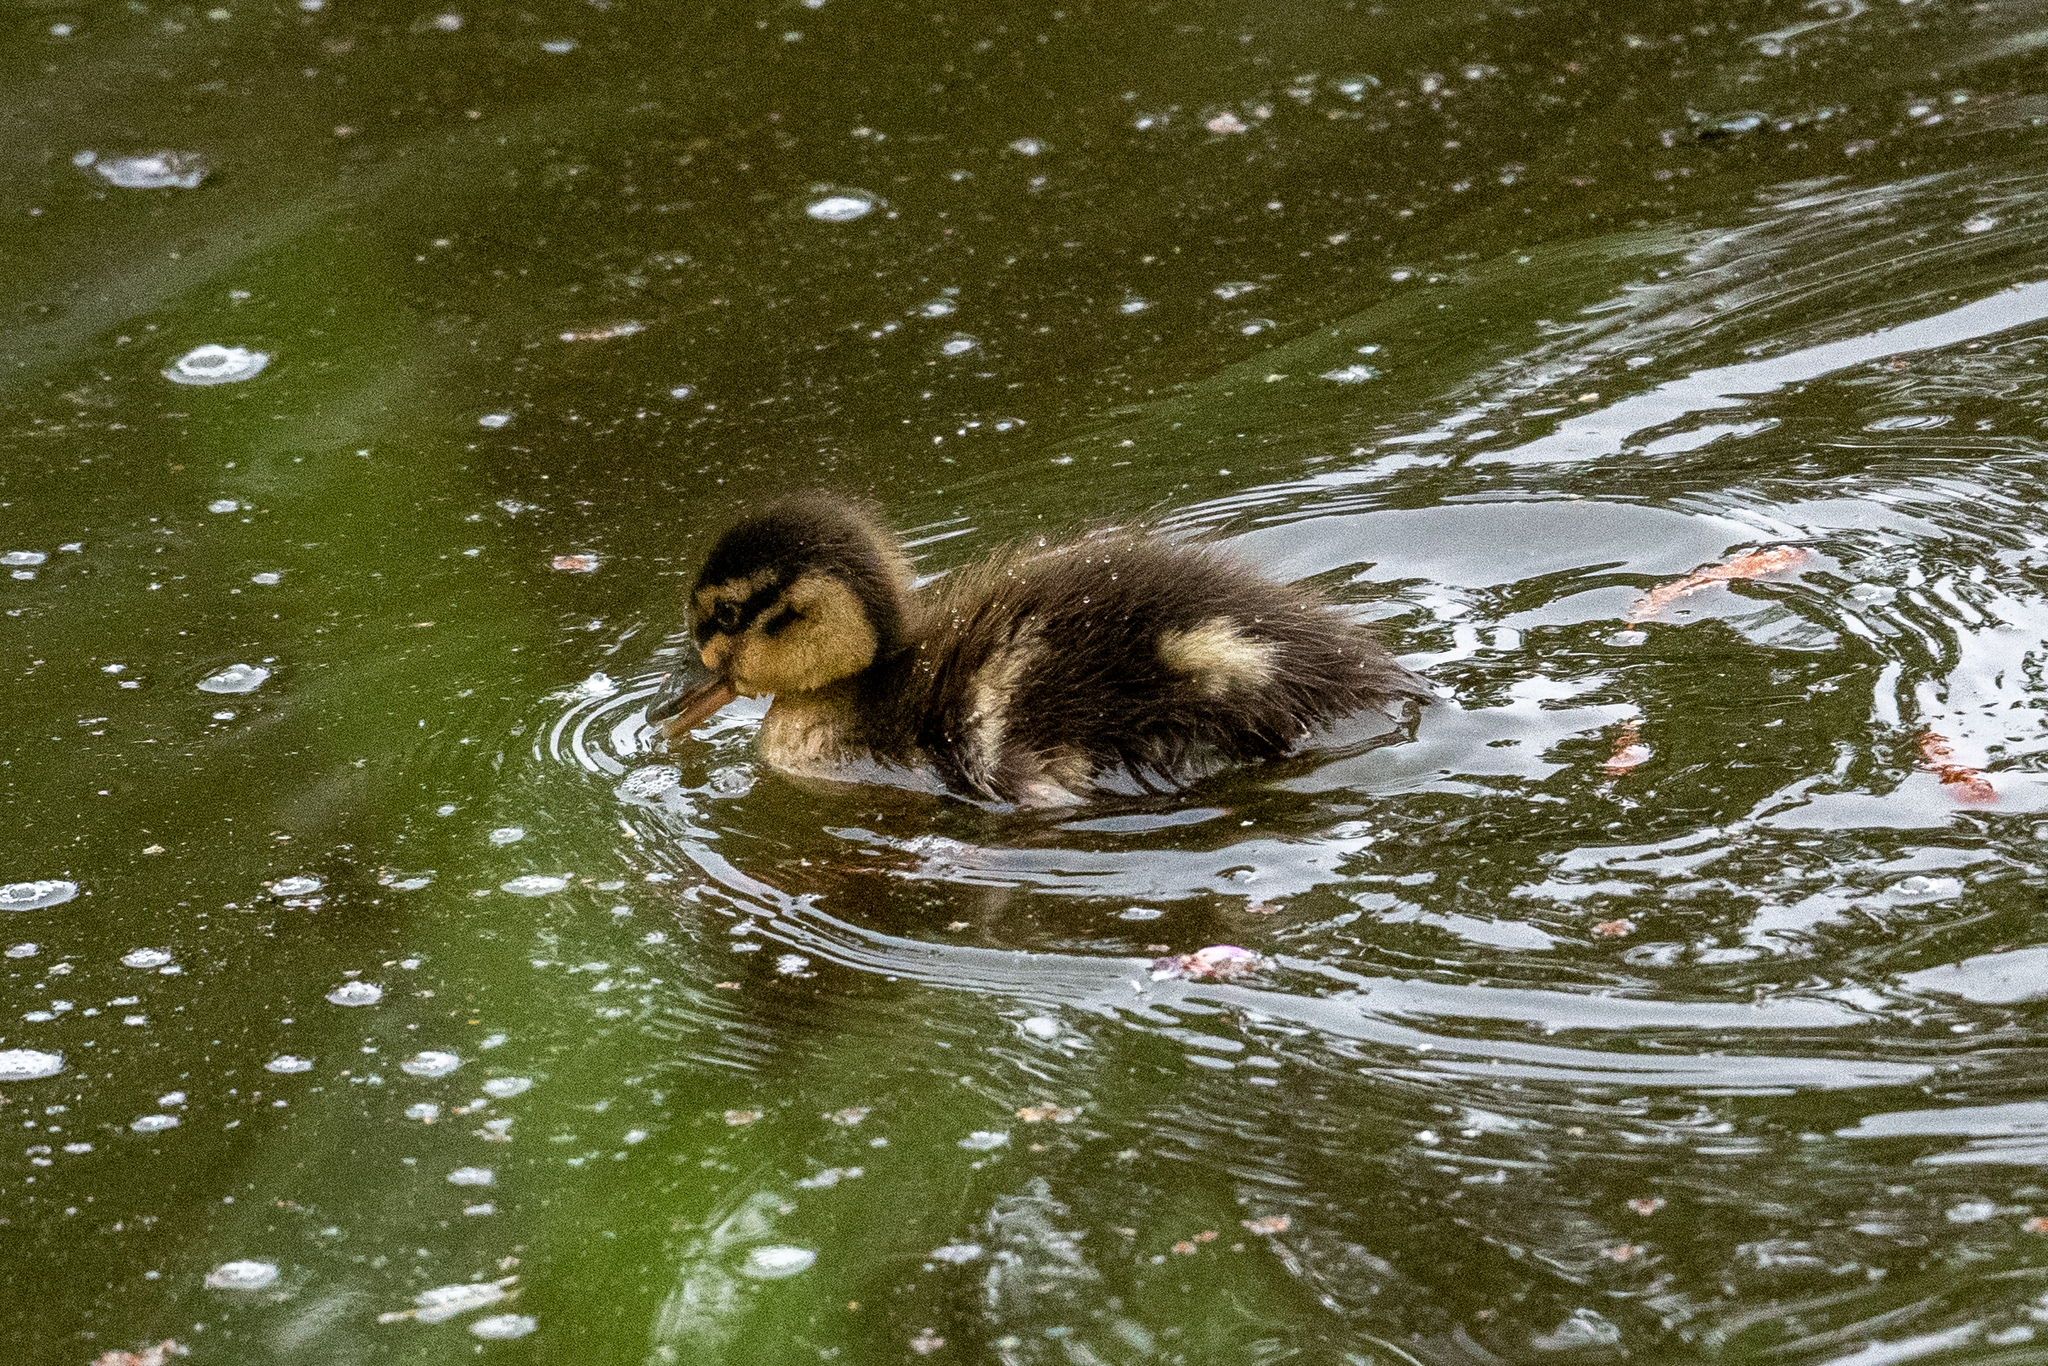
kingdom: Animalia
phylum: Chordata
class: Aves
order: Anseriformes
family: Anatidae
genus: Anas
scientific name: Anas platyrhynchos
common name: Mallard
